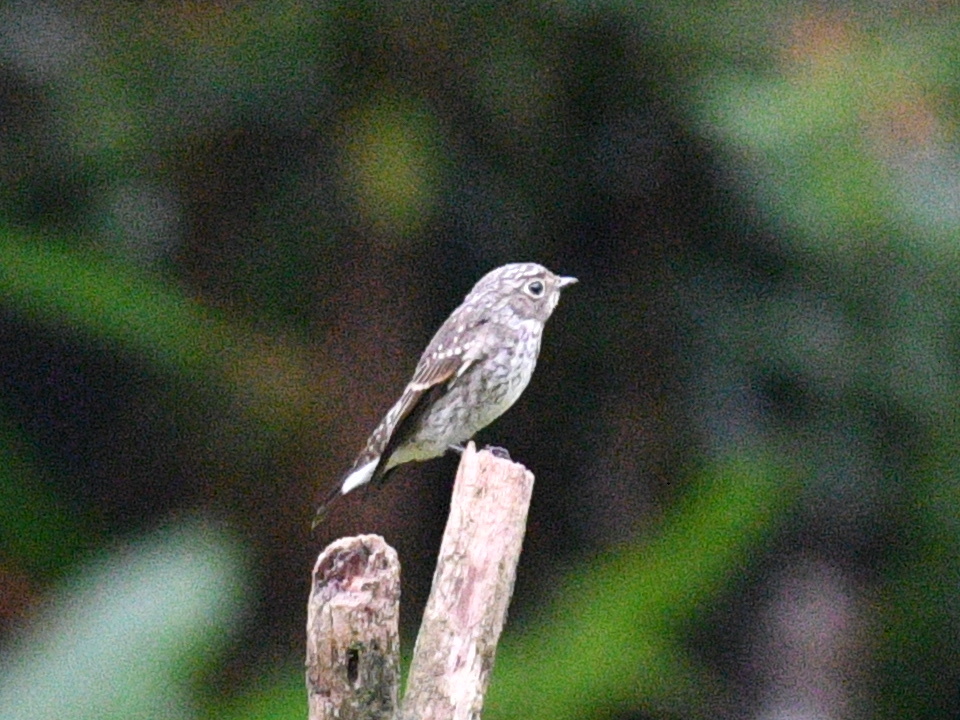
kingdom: Animalia
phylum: Chordata
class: Aves
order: Passeriformes
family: Muscicapidae
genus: Muscicapa
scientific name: Muscicapa sibirica
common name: Dark-sided flycatcher
